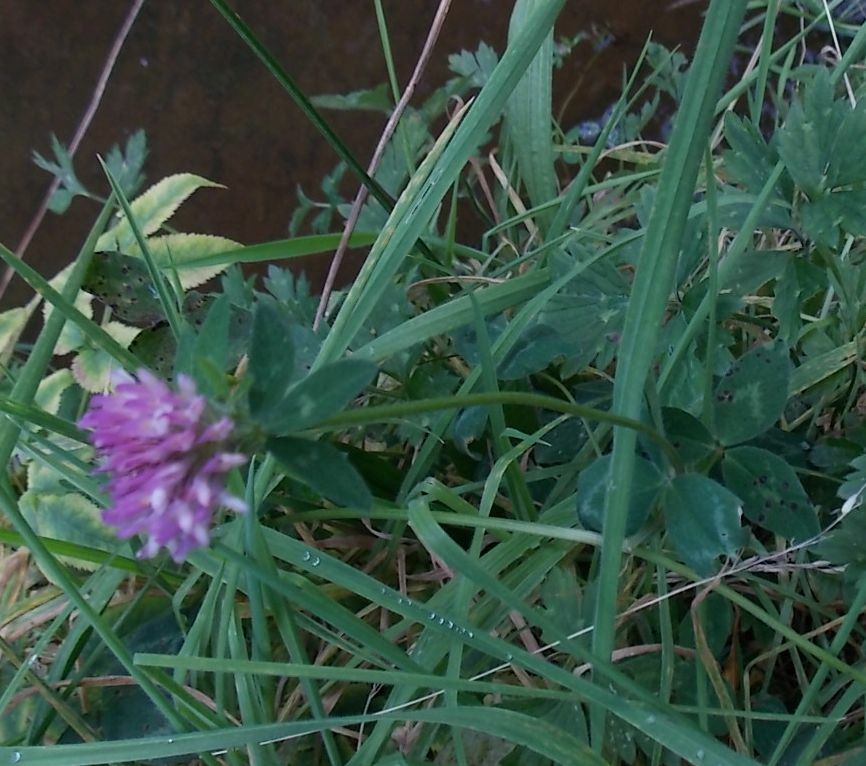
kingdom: Plantae
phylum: Tracheophyta
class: Magnoliopsida
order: Fabales
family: Fabaceae
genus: Trifolium
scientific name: Trifolium pratense
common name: Red clover
